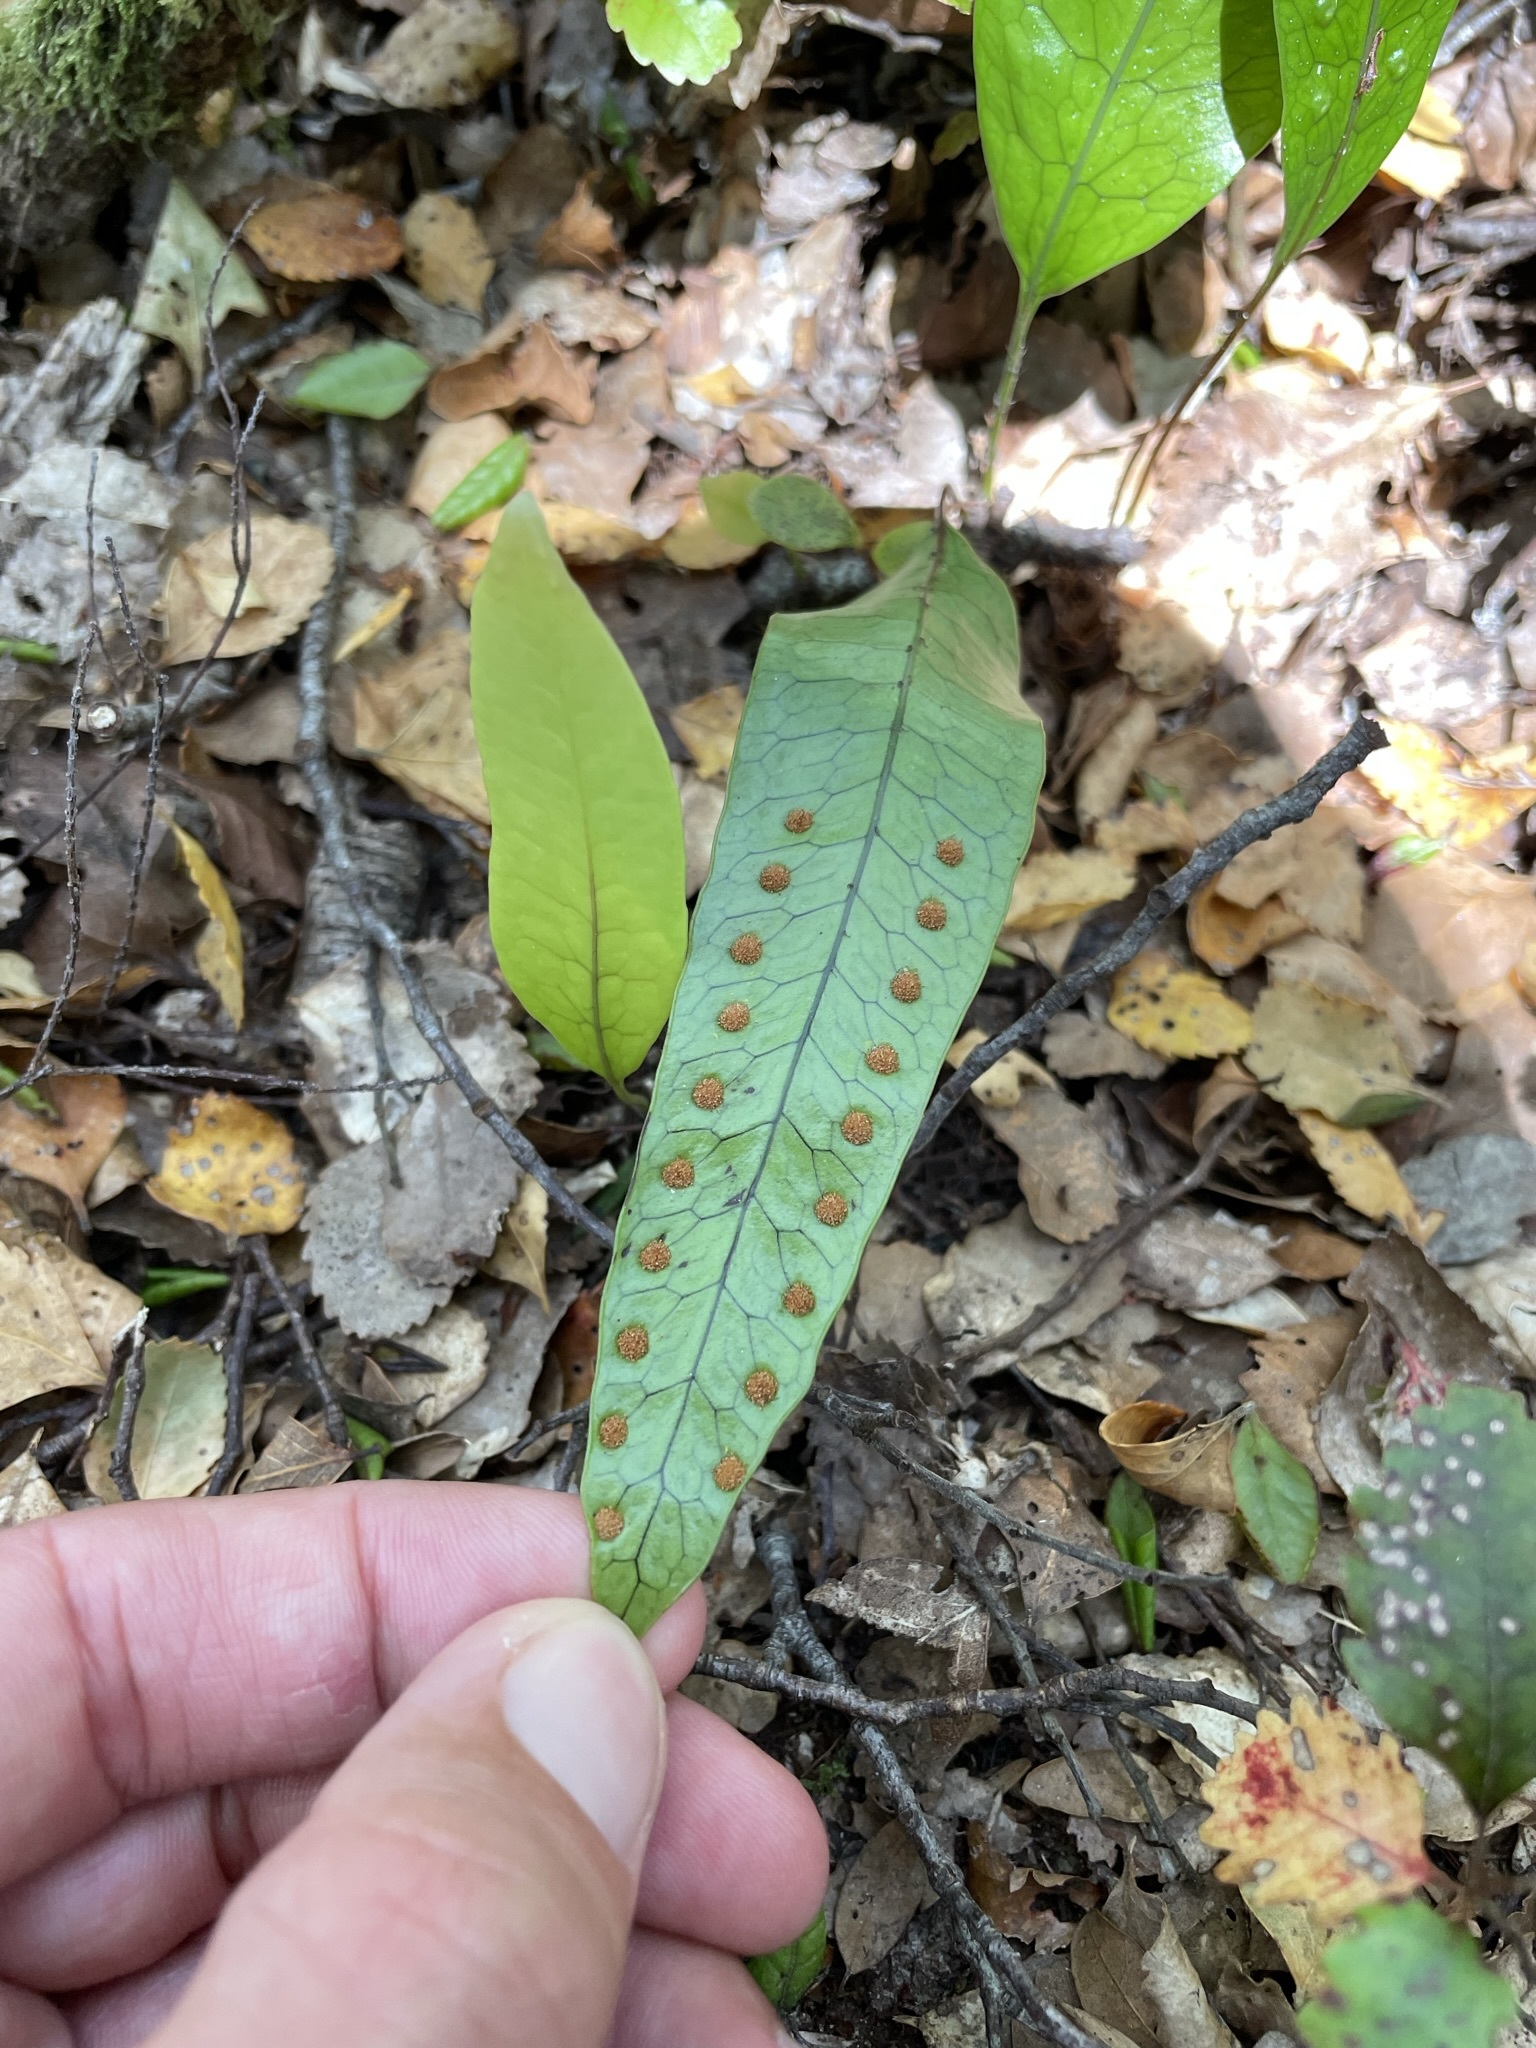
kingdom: Plantae
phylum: Tracheophyta
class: Polypodiopsida
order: Polypodiales
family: Polypodiaceae
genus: Lecanopteris
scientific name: Lecanopteris pustulata
